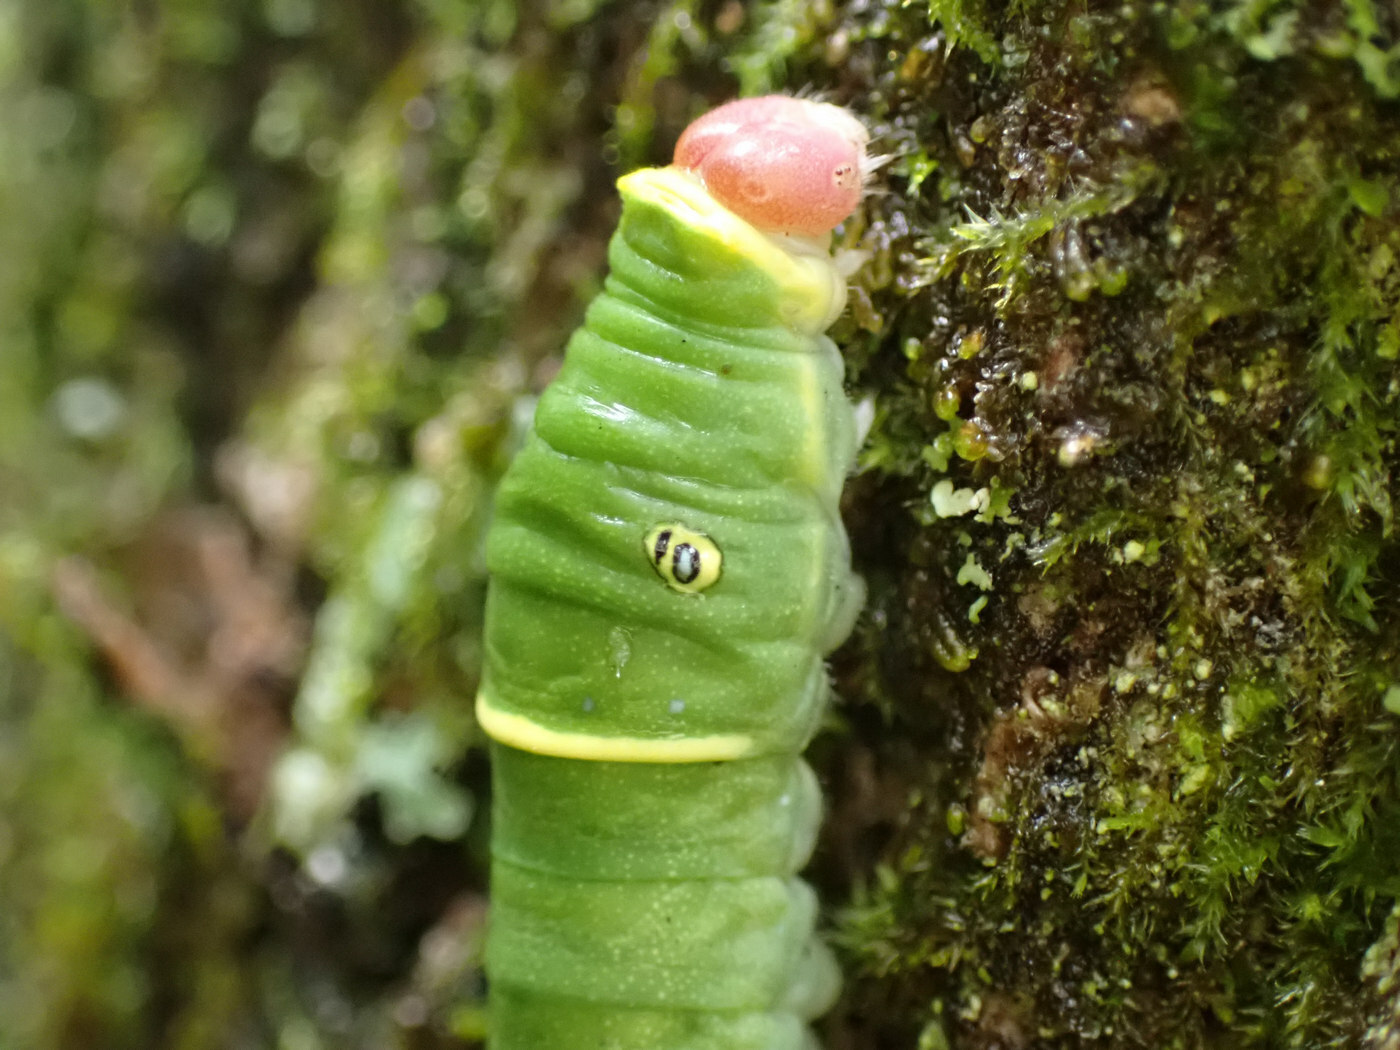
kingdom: Animalia
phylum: Arthropoda
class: Insecta
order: Lepidoptera
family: Papilionidae
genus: Papilio
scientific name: Papilio glaucus
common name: Tiger swallowtail
